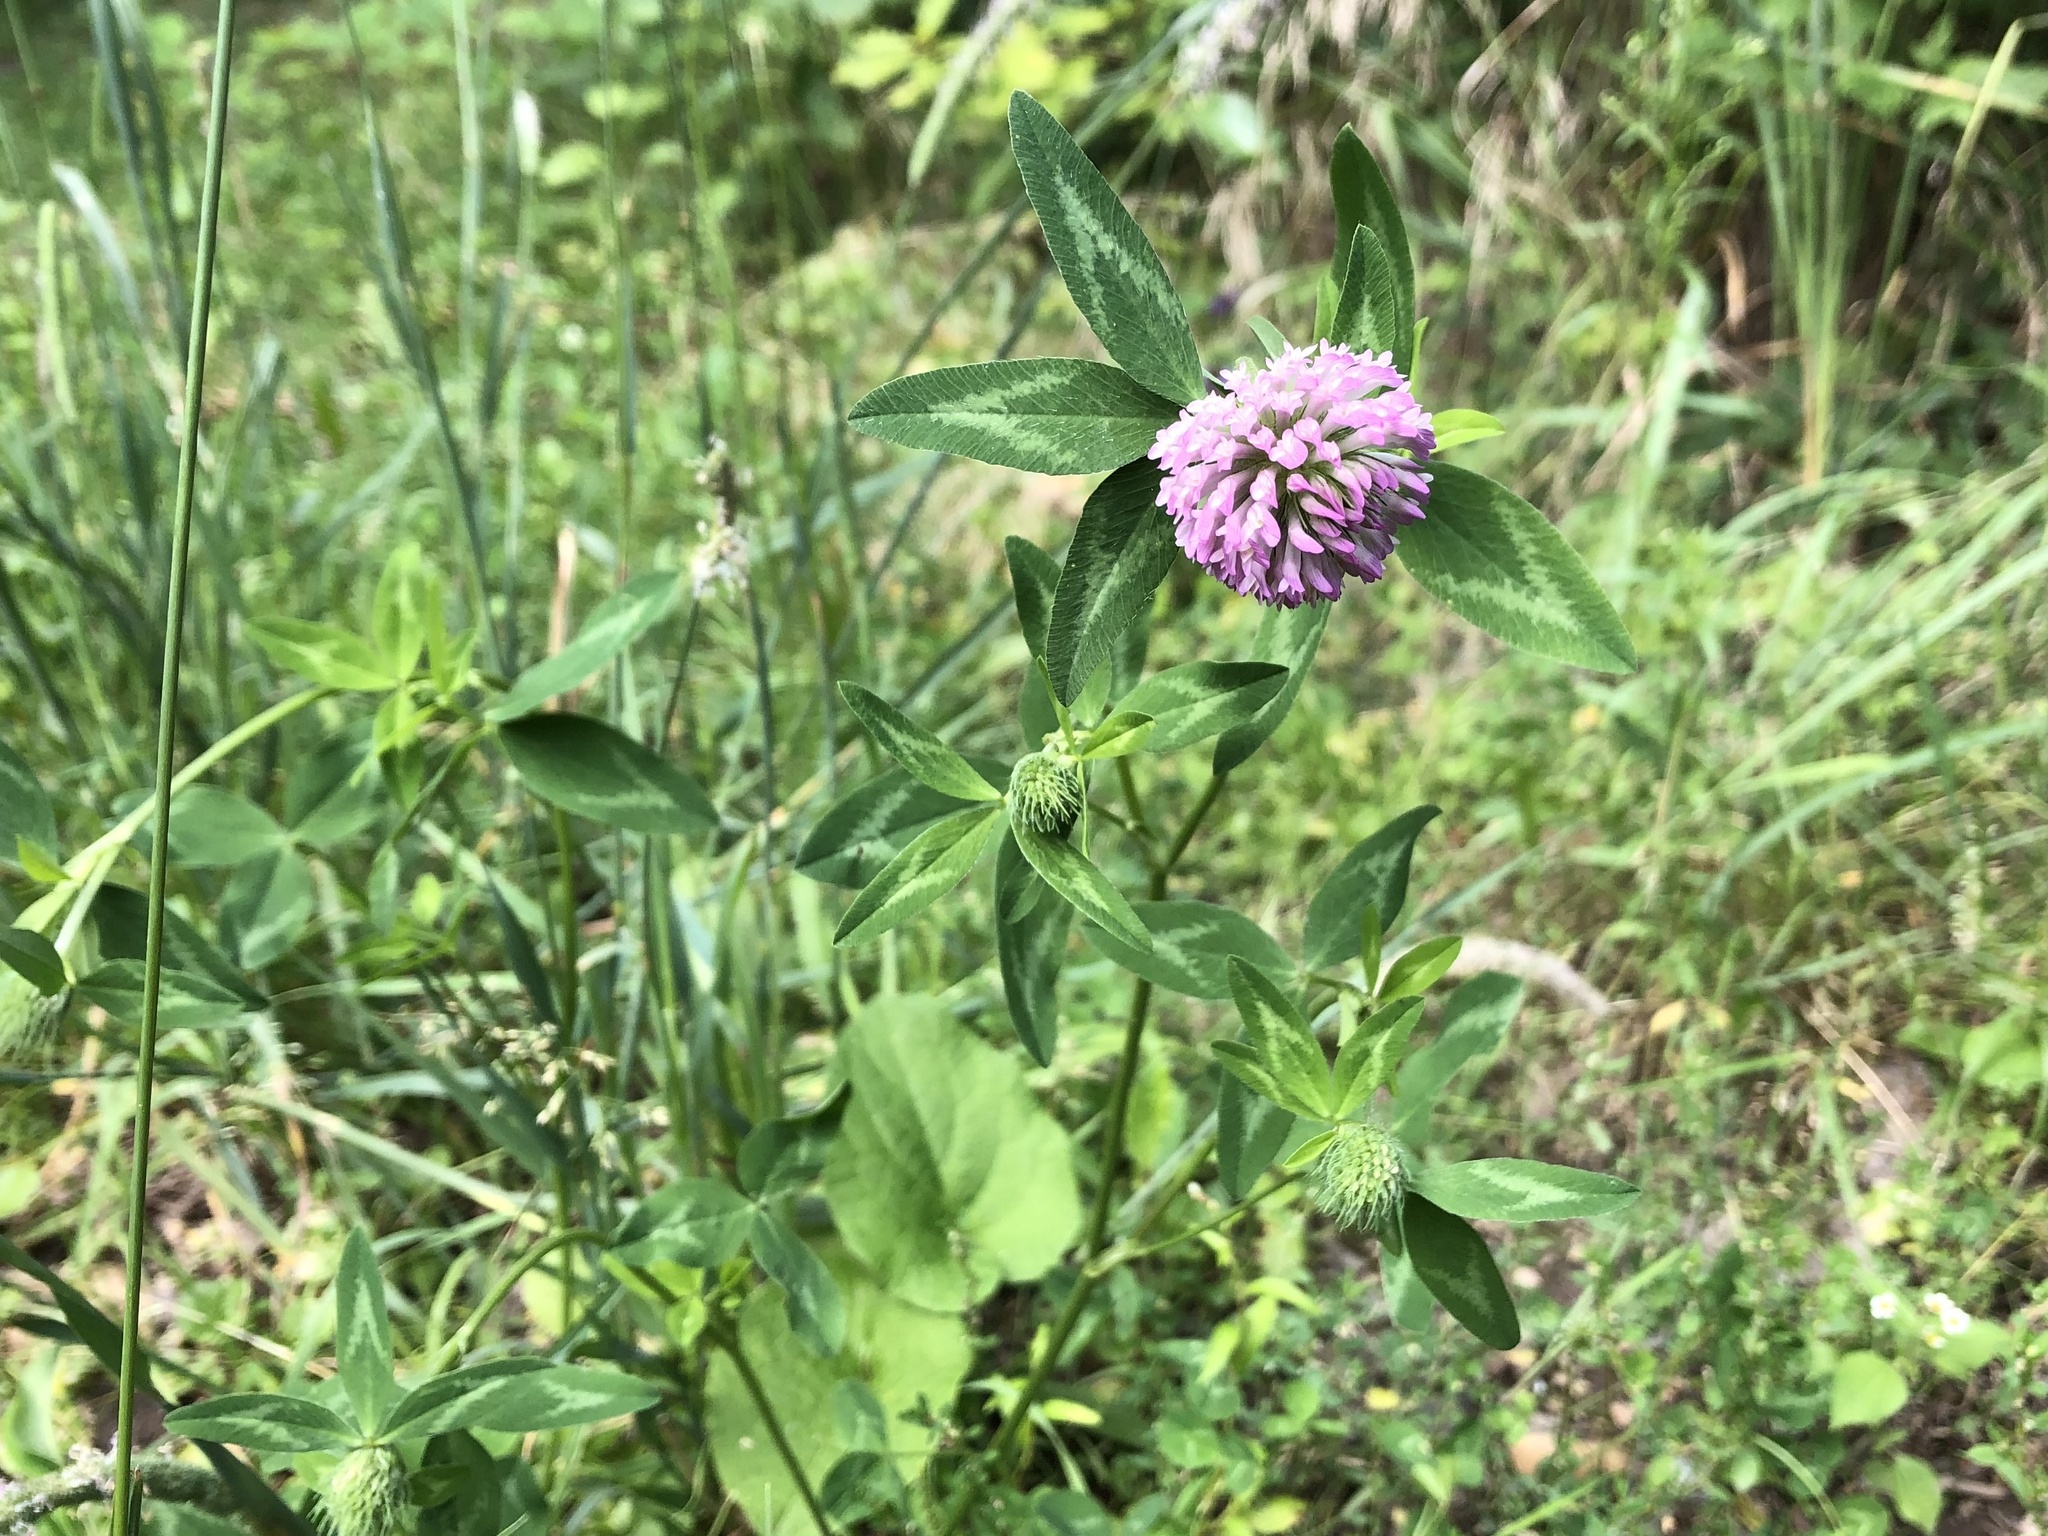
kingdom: Plantae
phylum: Tracheophyta
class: Magnoliopsida
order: Fabales
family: Fabaceae
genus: Trifolium
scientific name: Trifolium pratense
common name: Red clover
